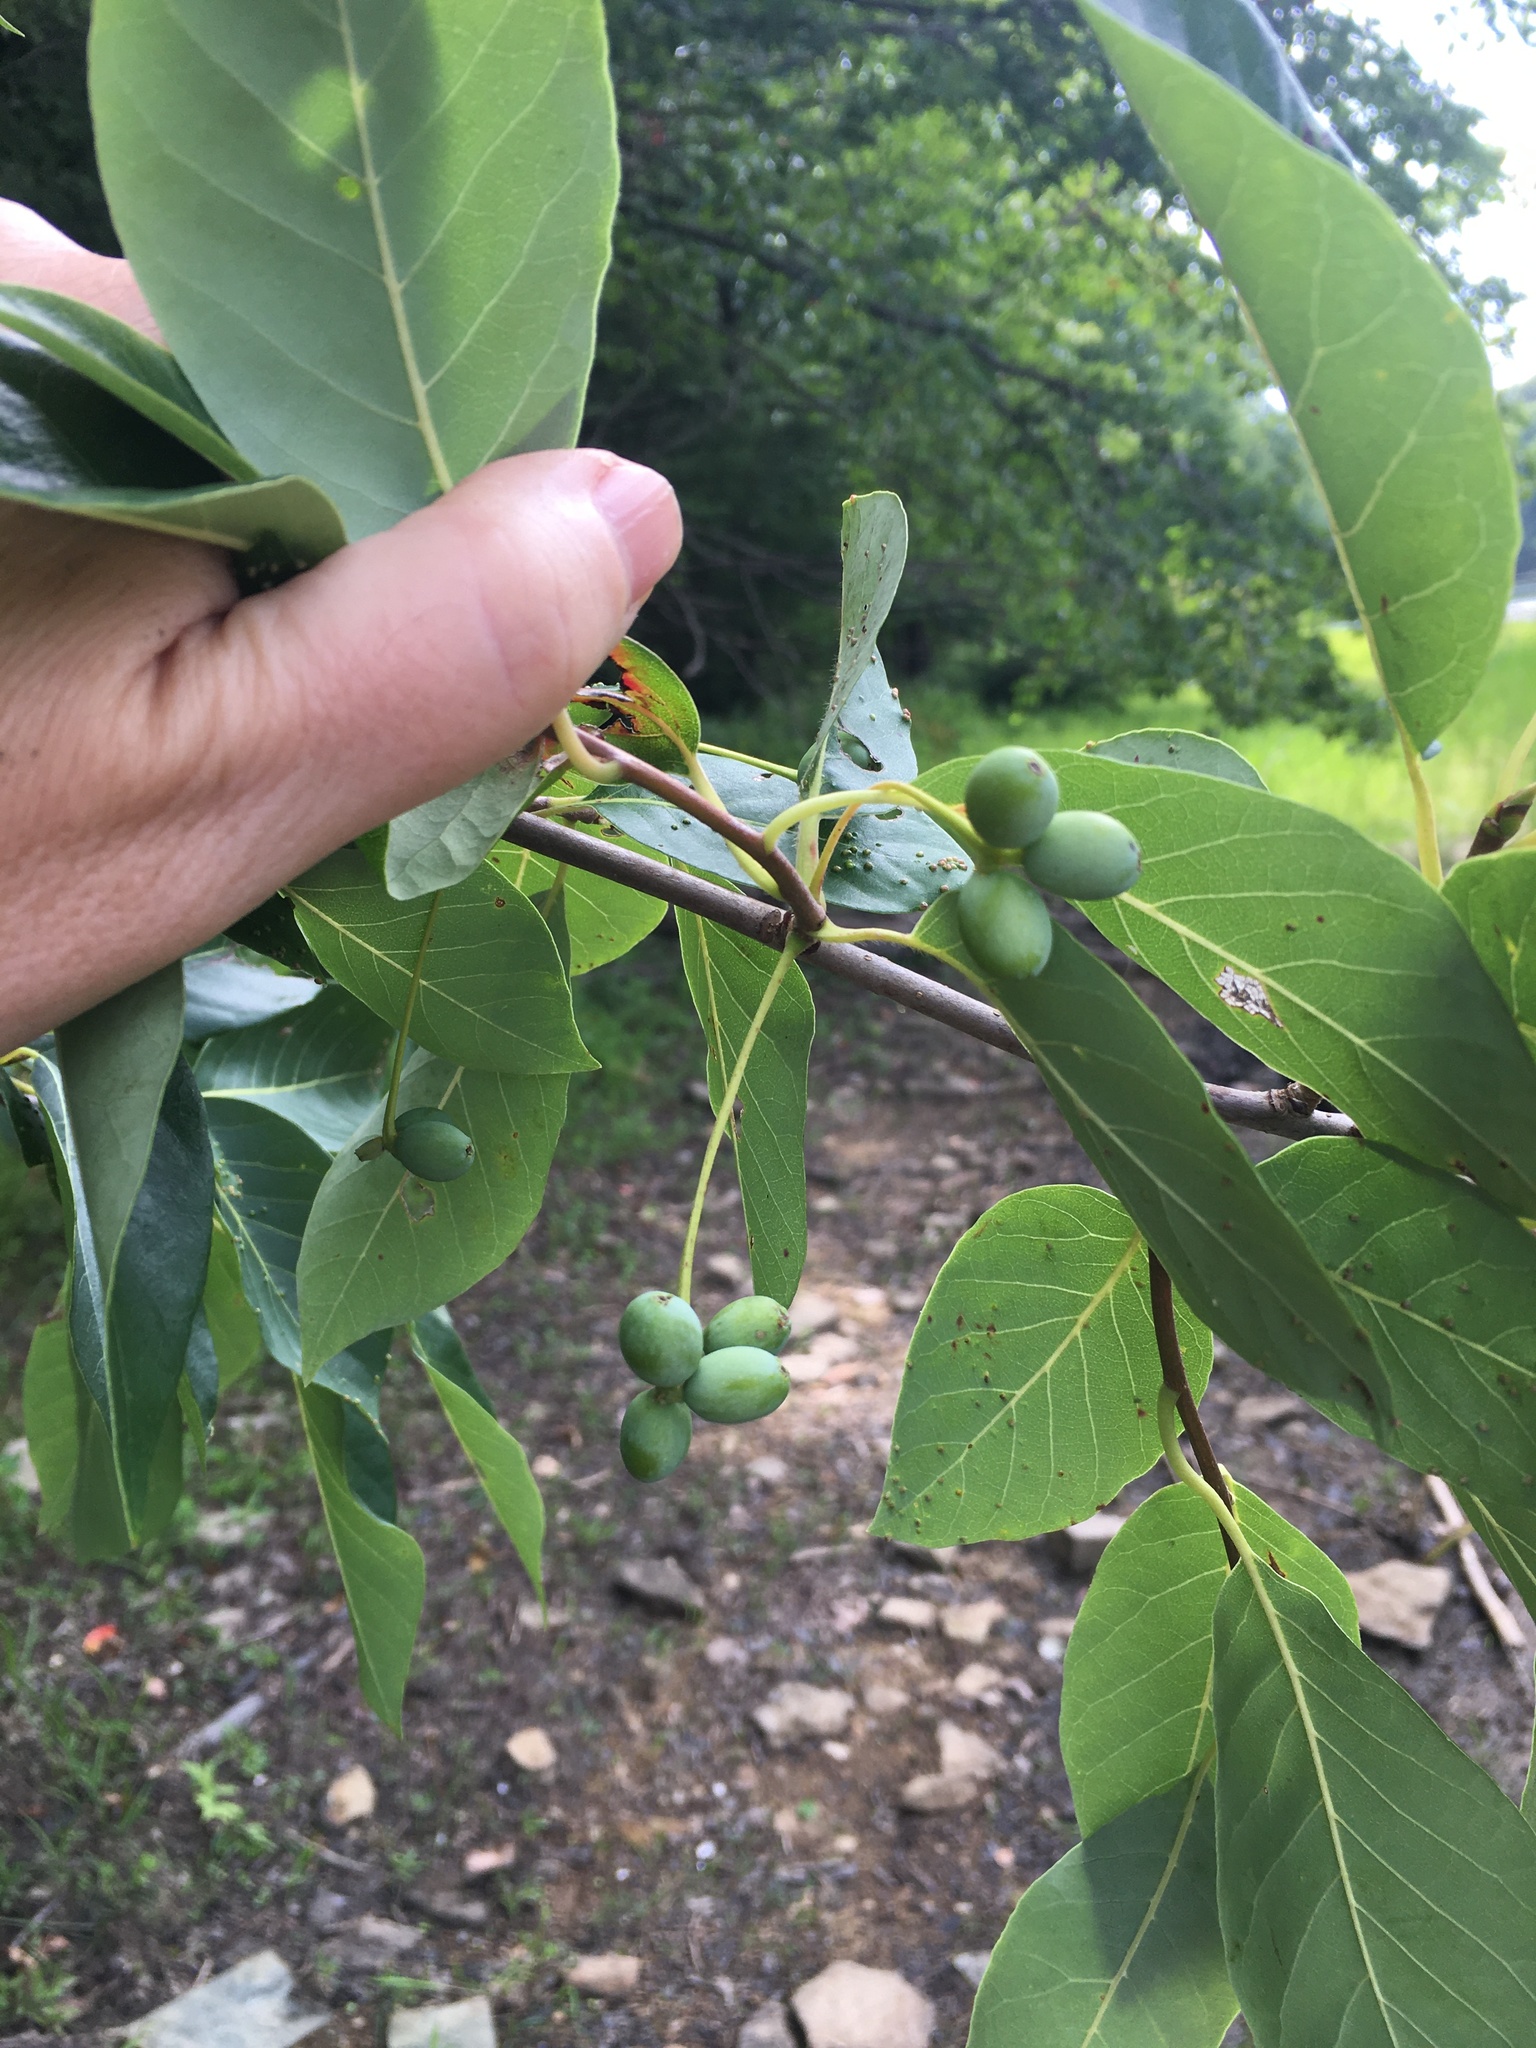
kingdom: Plantae
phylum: Tracheophyta
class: Magnoliopsida
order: Cornales
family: Nyssaceae
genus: Nyssa
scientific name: Nyssa sylvatica
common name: Black tupelo
